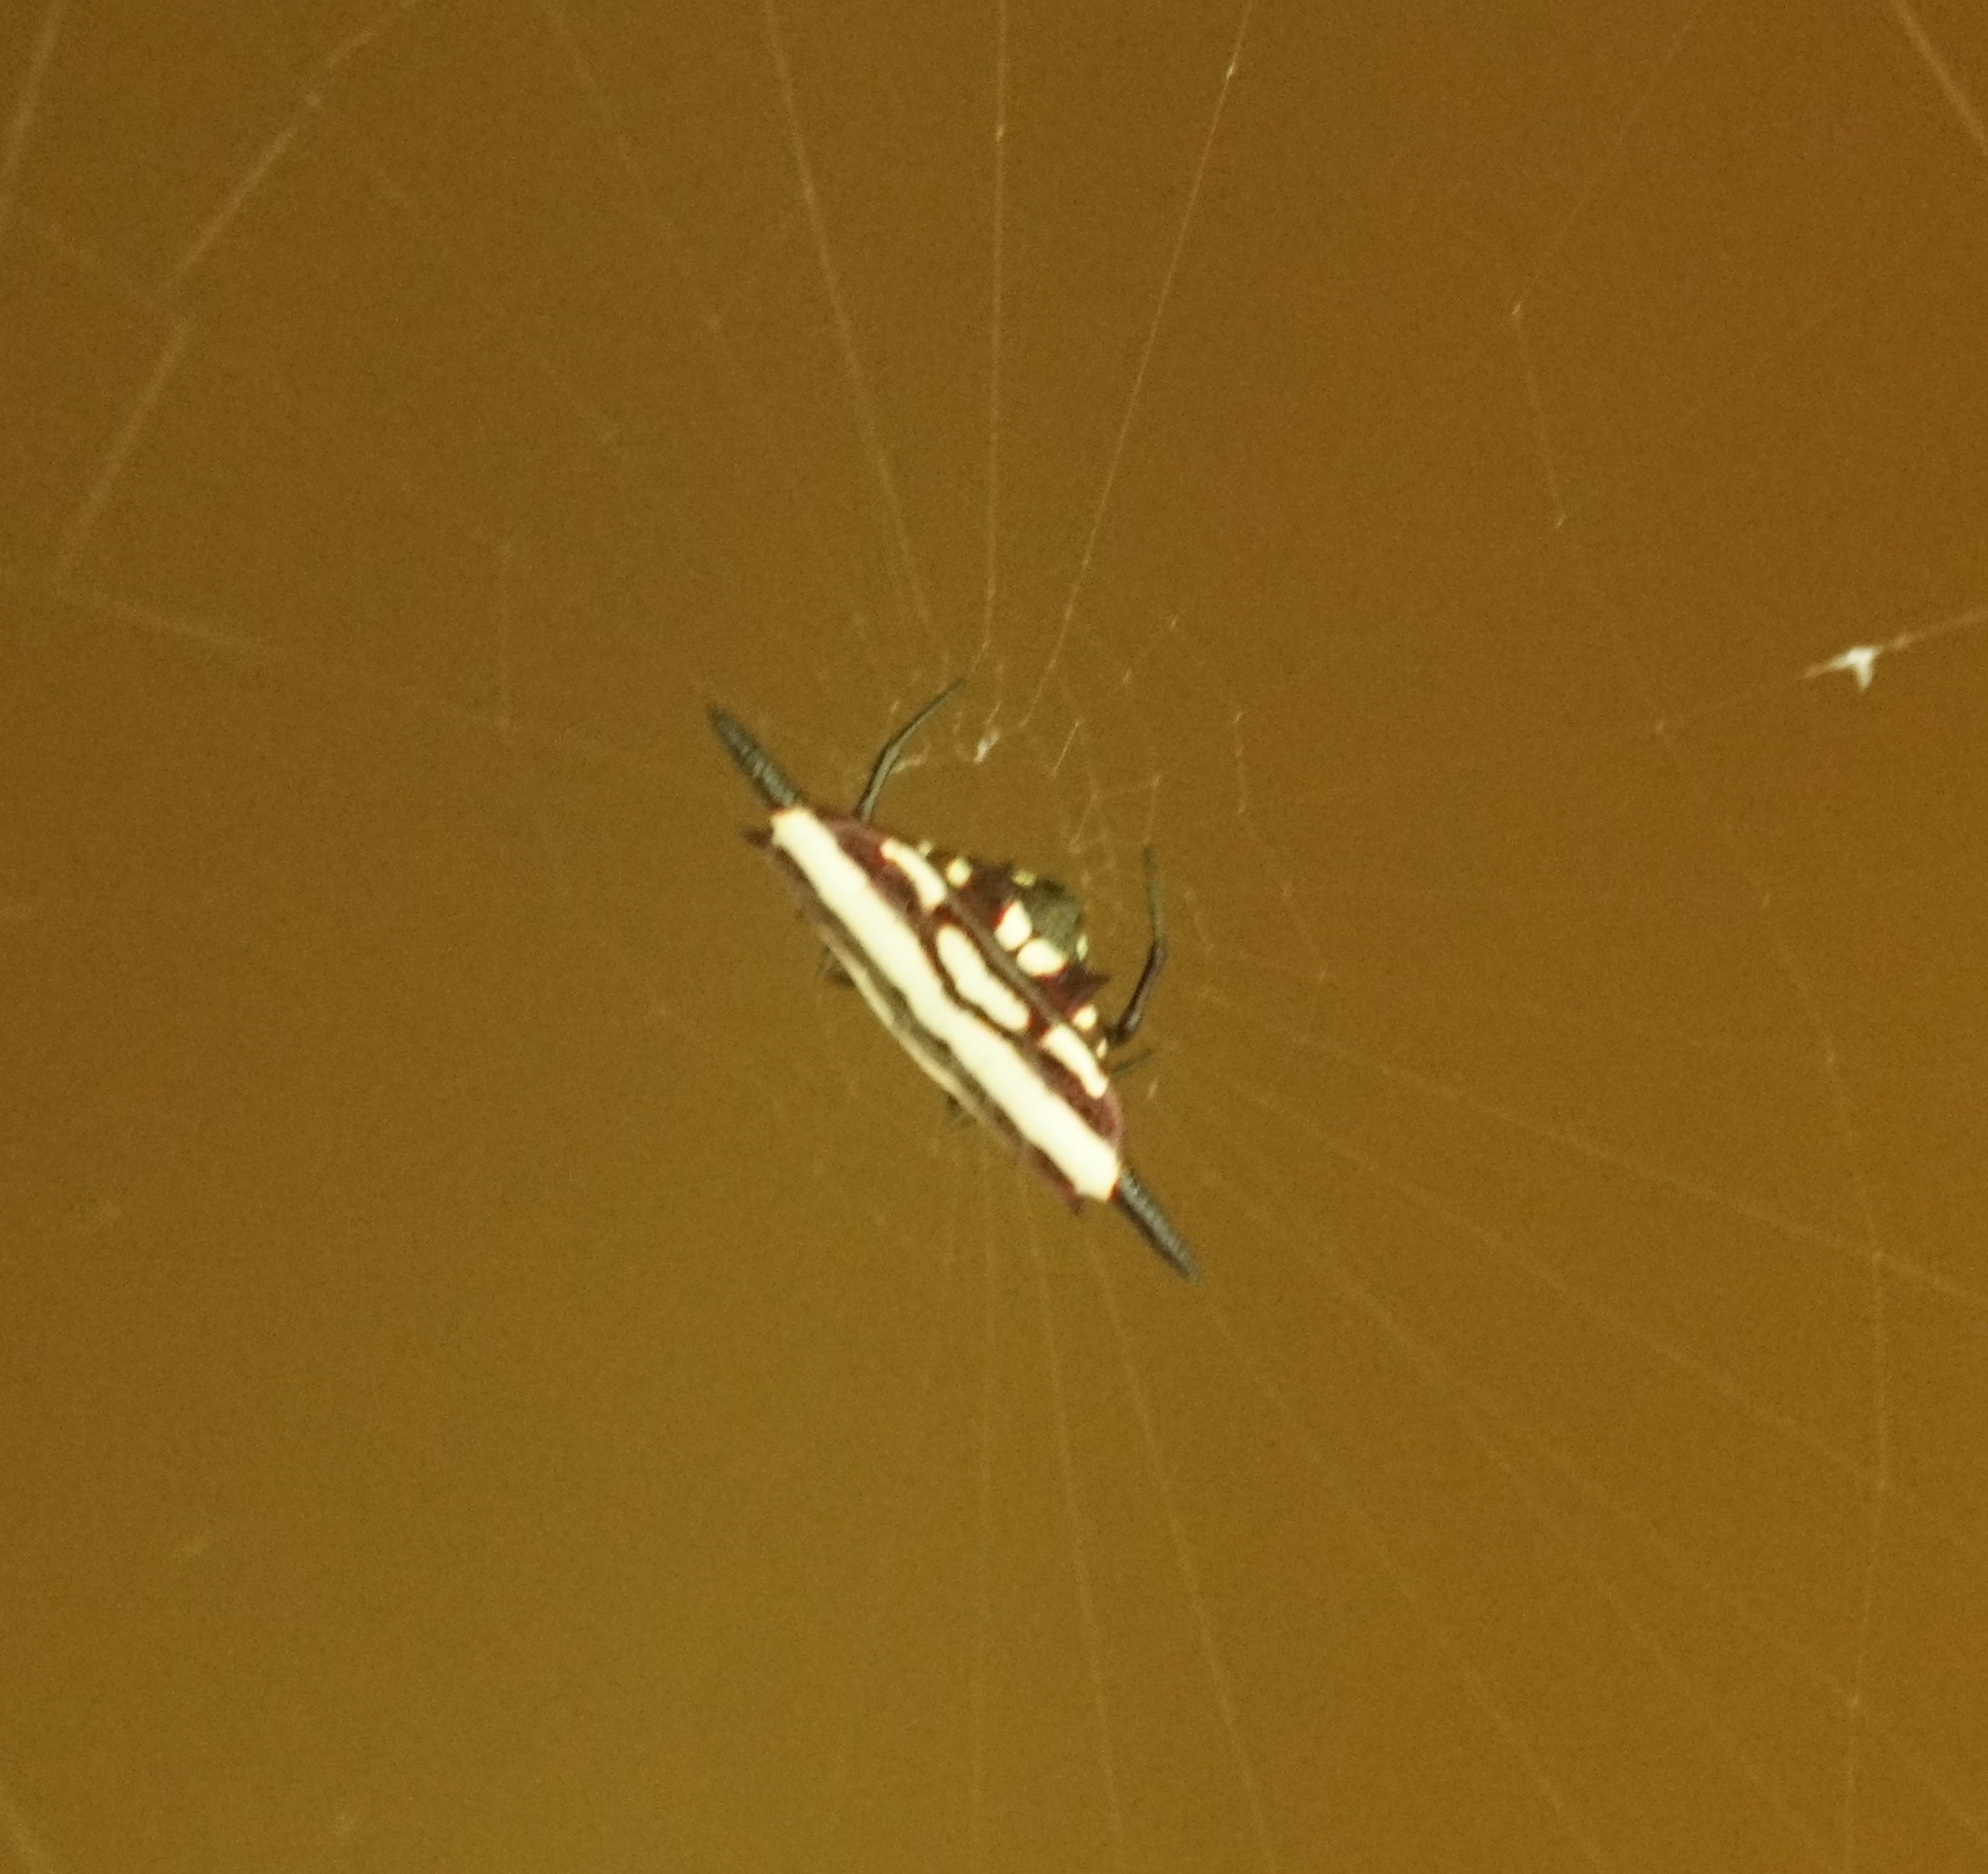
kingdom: Animalia
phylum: Arthropoda
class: Arachnida
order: Araneae
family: Araneidae
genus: Gasteracantha
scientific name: Gasteracantha fornicata
